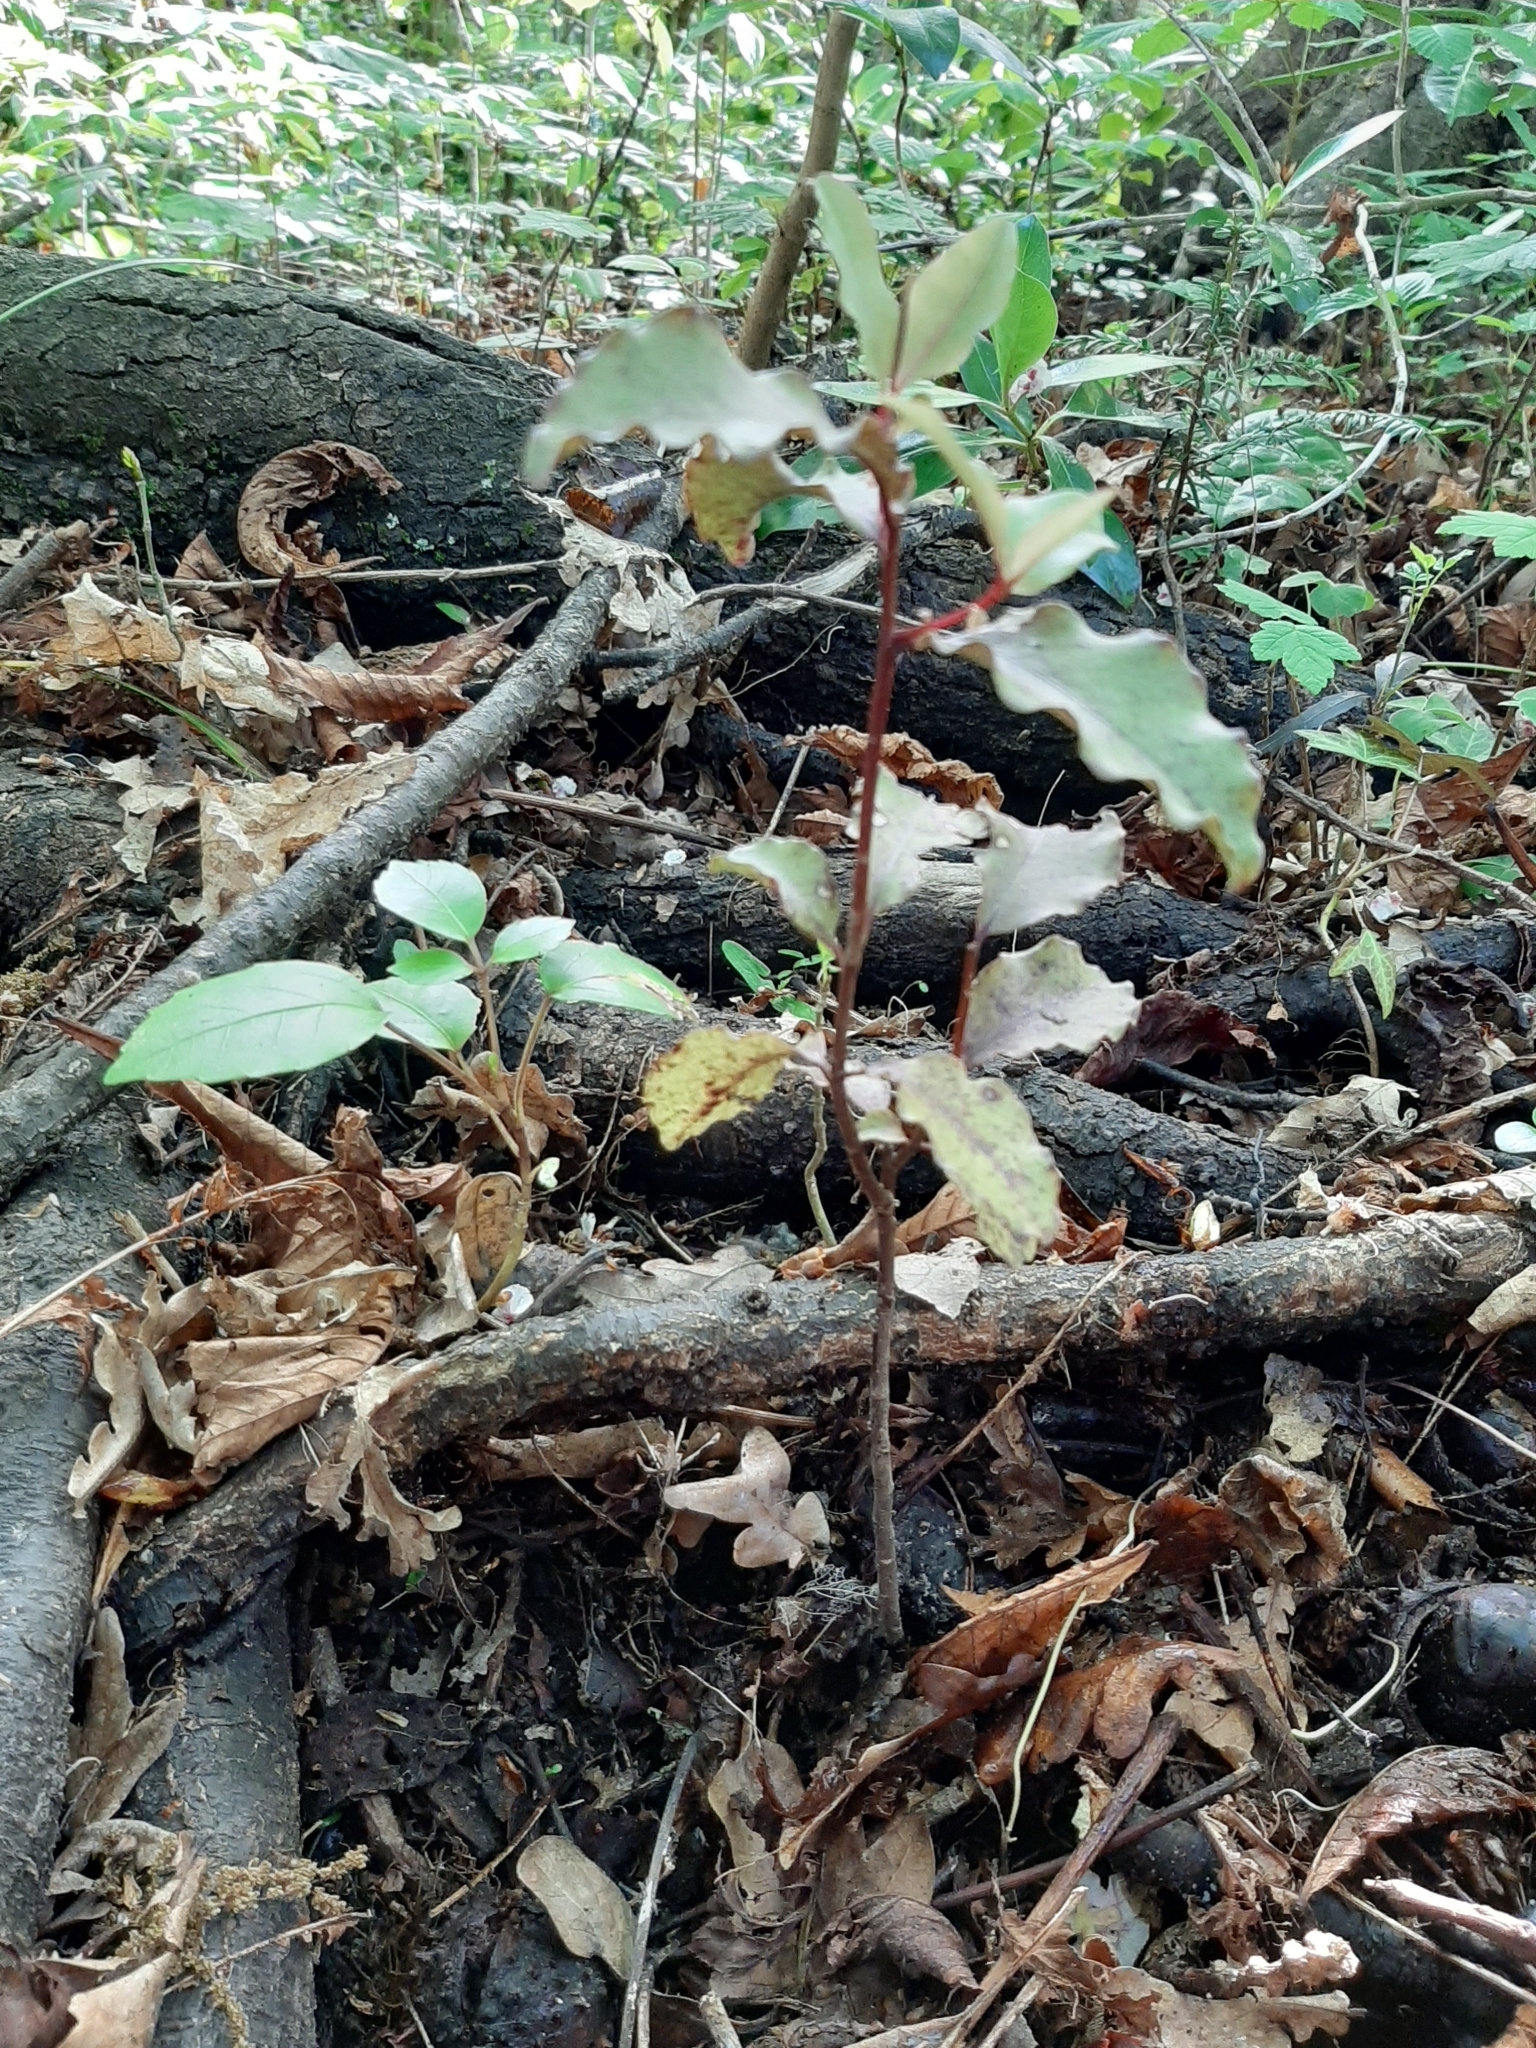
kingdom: Plantae
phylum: Tracheophyta
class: Magnoliopsida
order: Ericales
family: Primulaceae
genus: Myrsine
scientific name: Myrsine australis
